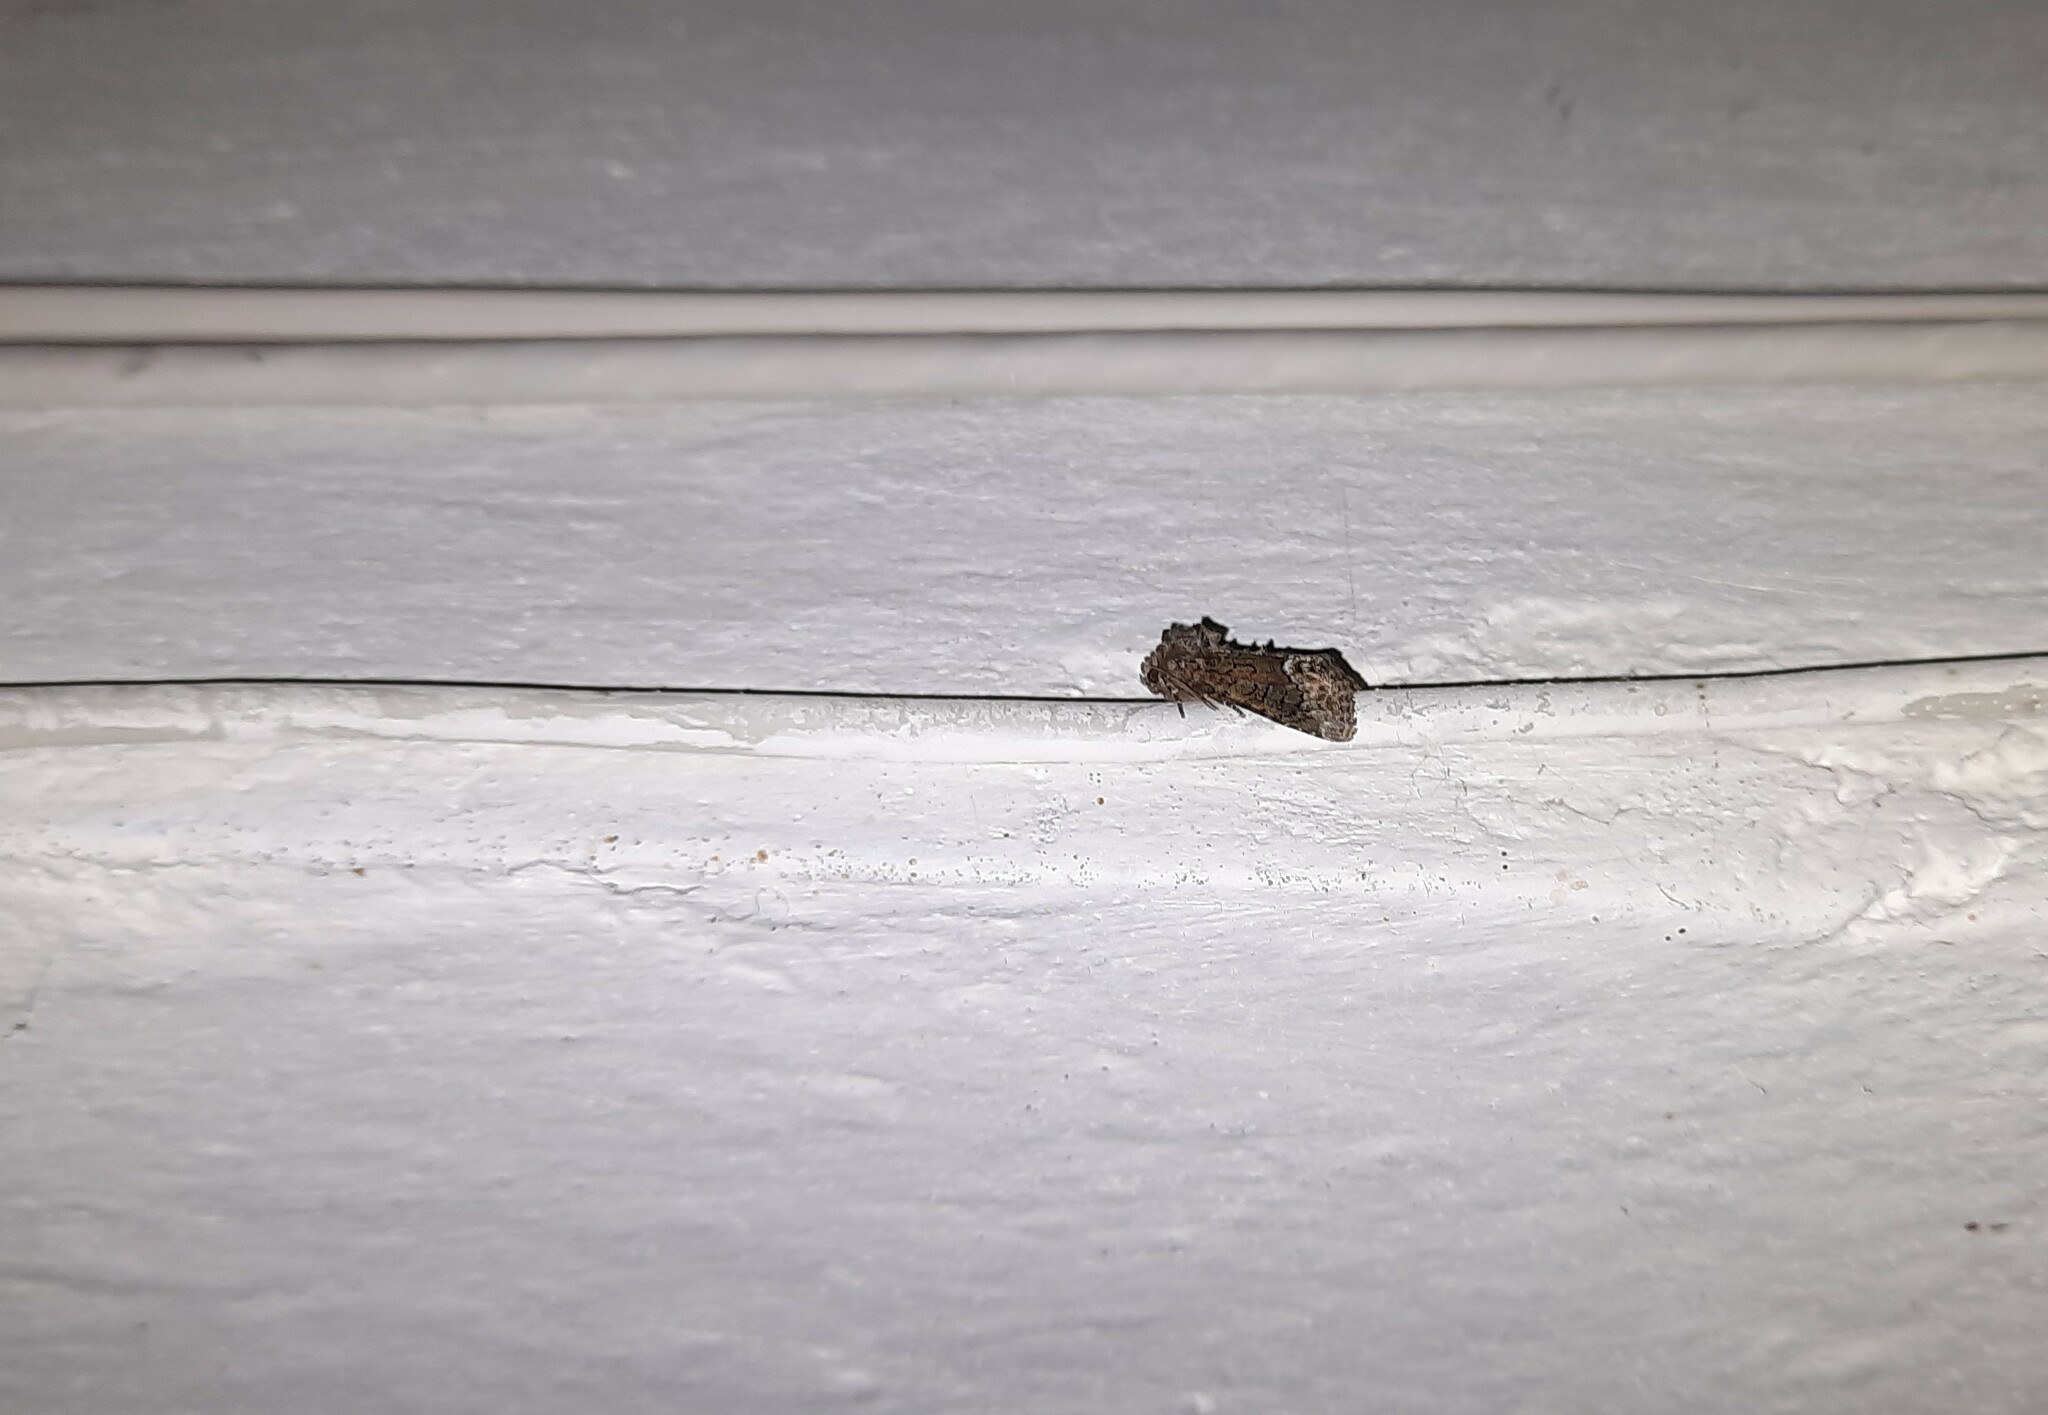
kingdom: Animalia
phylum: Arthropoda
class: Insecta
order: Lepidoptera
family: Noctuidae
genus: Oligia
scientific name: Oligia strigilis
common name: Marbled minor
